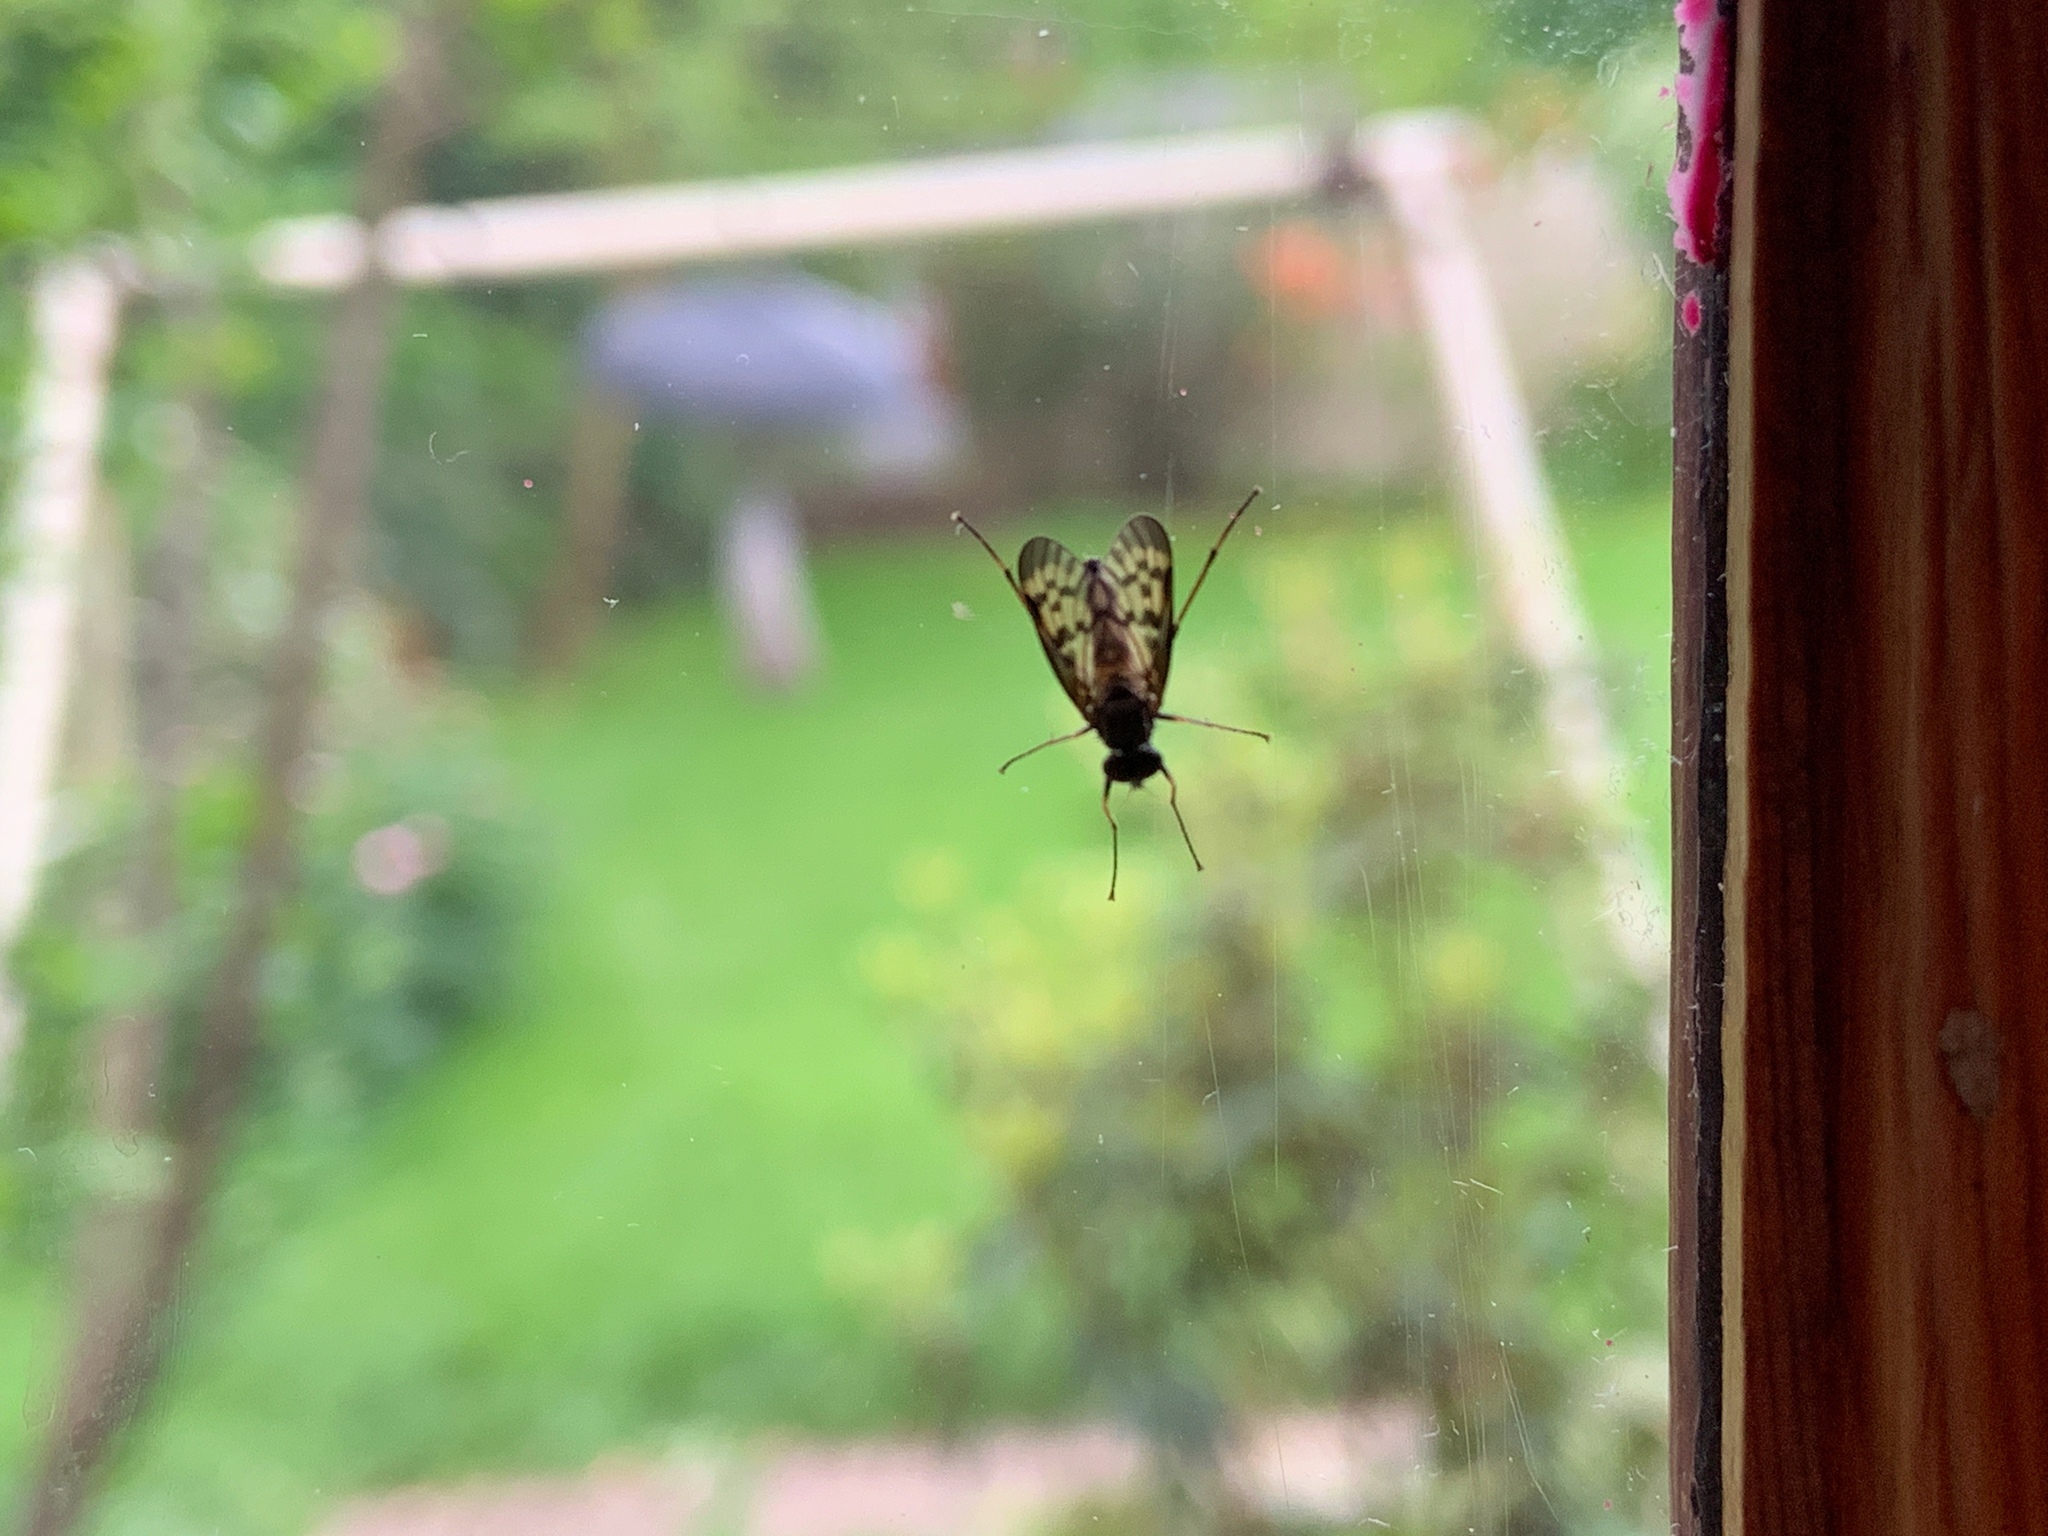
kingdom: Animalia
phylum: Arthropoda
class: Insecta
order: Diptera
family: Rhagionidae
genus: Rhagio
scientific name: Rhagio punctipennis
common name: Lesser variegated snipe fly
